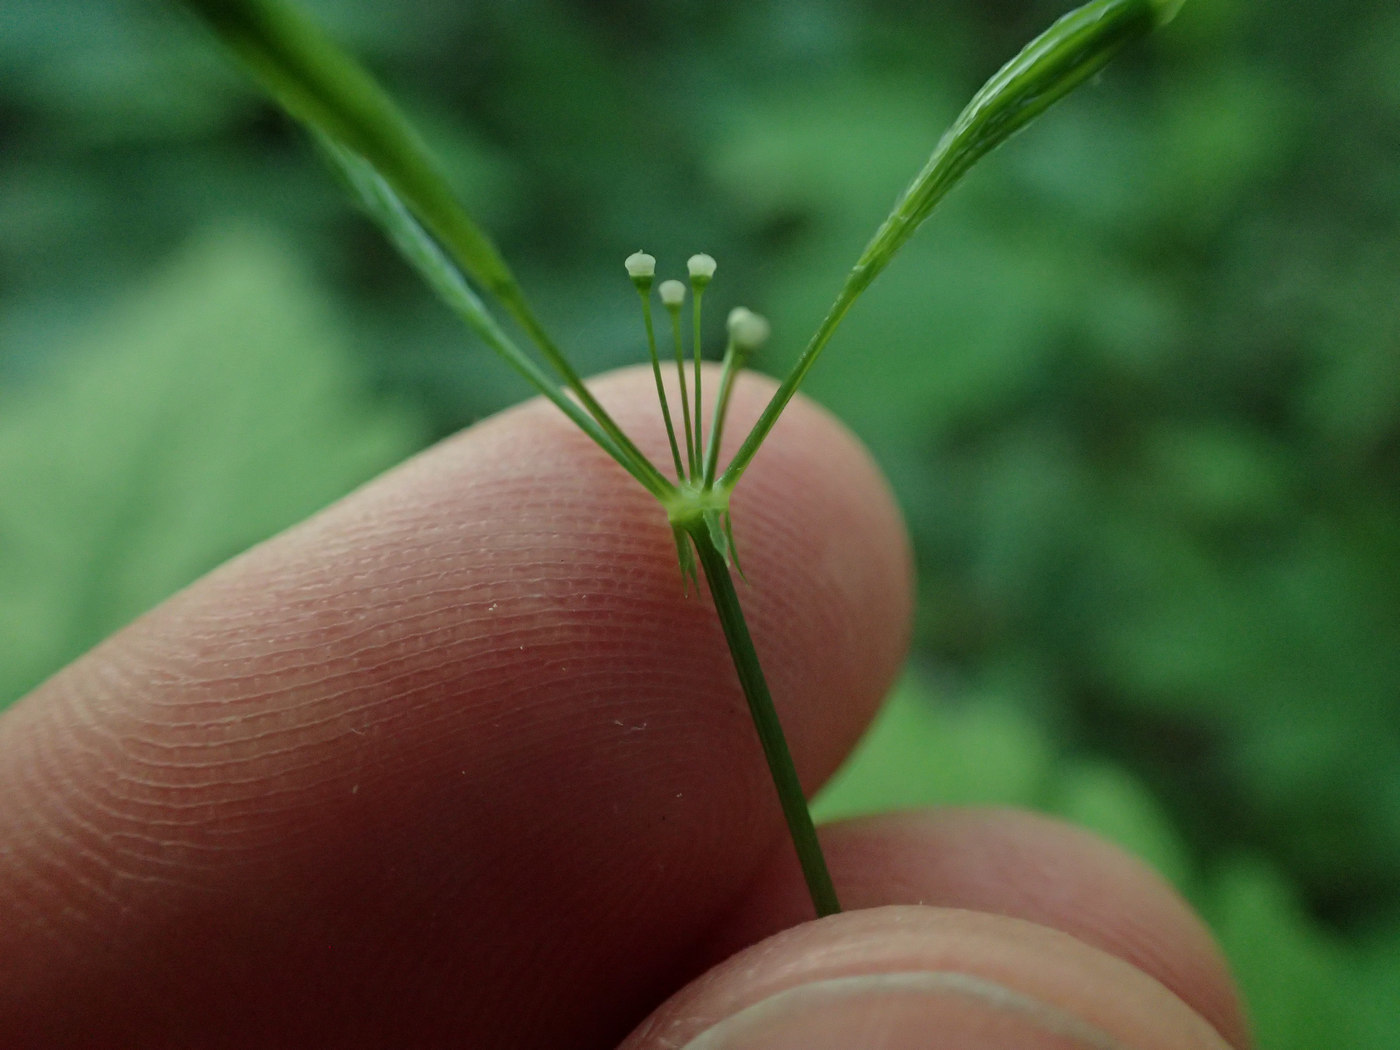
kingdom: Plantae
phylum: Tracheophyta
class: Magnoliopsida
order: Apiales
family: Apiaceae
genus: Osmorhiza
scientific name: Osmorhiza claytonii
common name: Hairy sweet cicely
